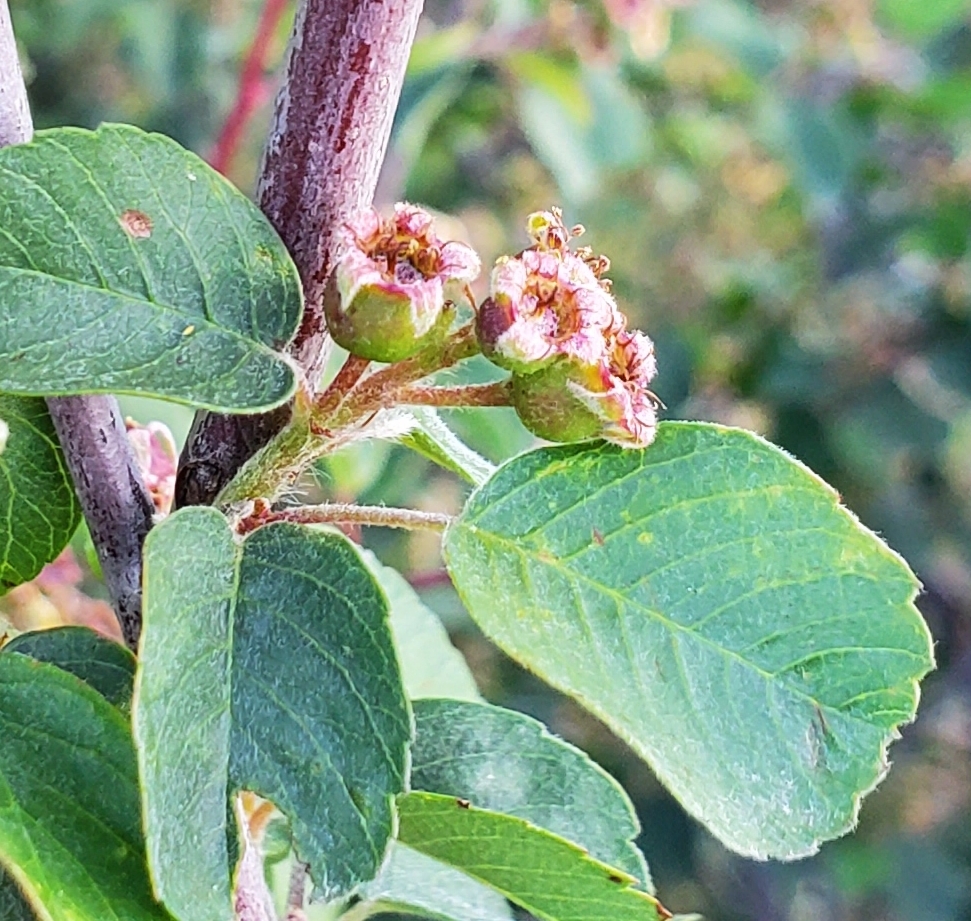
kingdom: Plantae
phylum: Tracheophyta
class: Magnoliopsida
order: Rosales
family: Rosaceae
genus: Amelanchier
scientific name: Amelanchier utahensis
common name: Utah serviceberry
